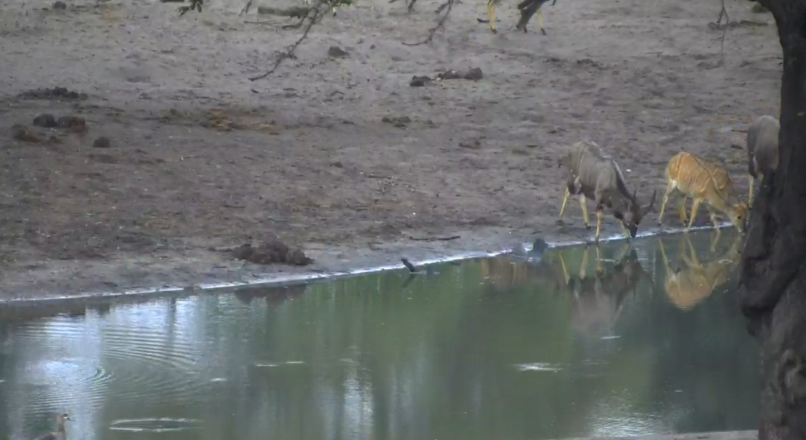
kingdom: Animalia
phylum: Chordata
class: Mammalia
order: Artiodactyla
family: Bovidae
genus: Tragelaphus
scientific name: Tragelaphus angasii
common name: Nyala
